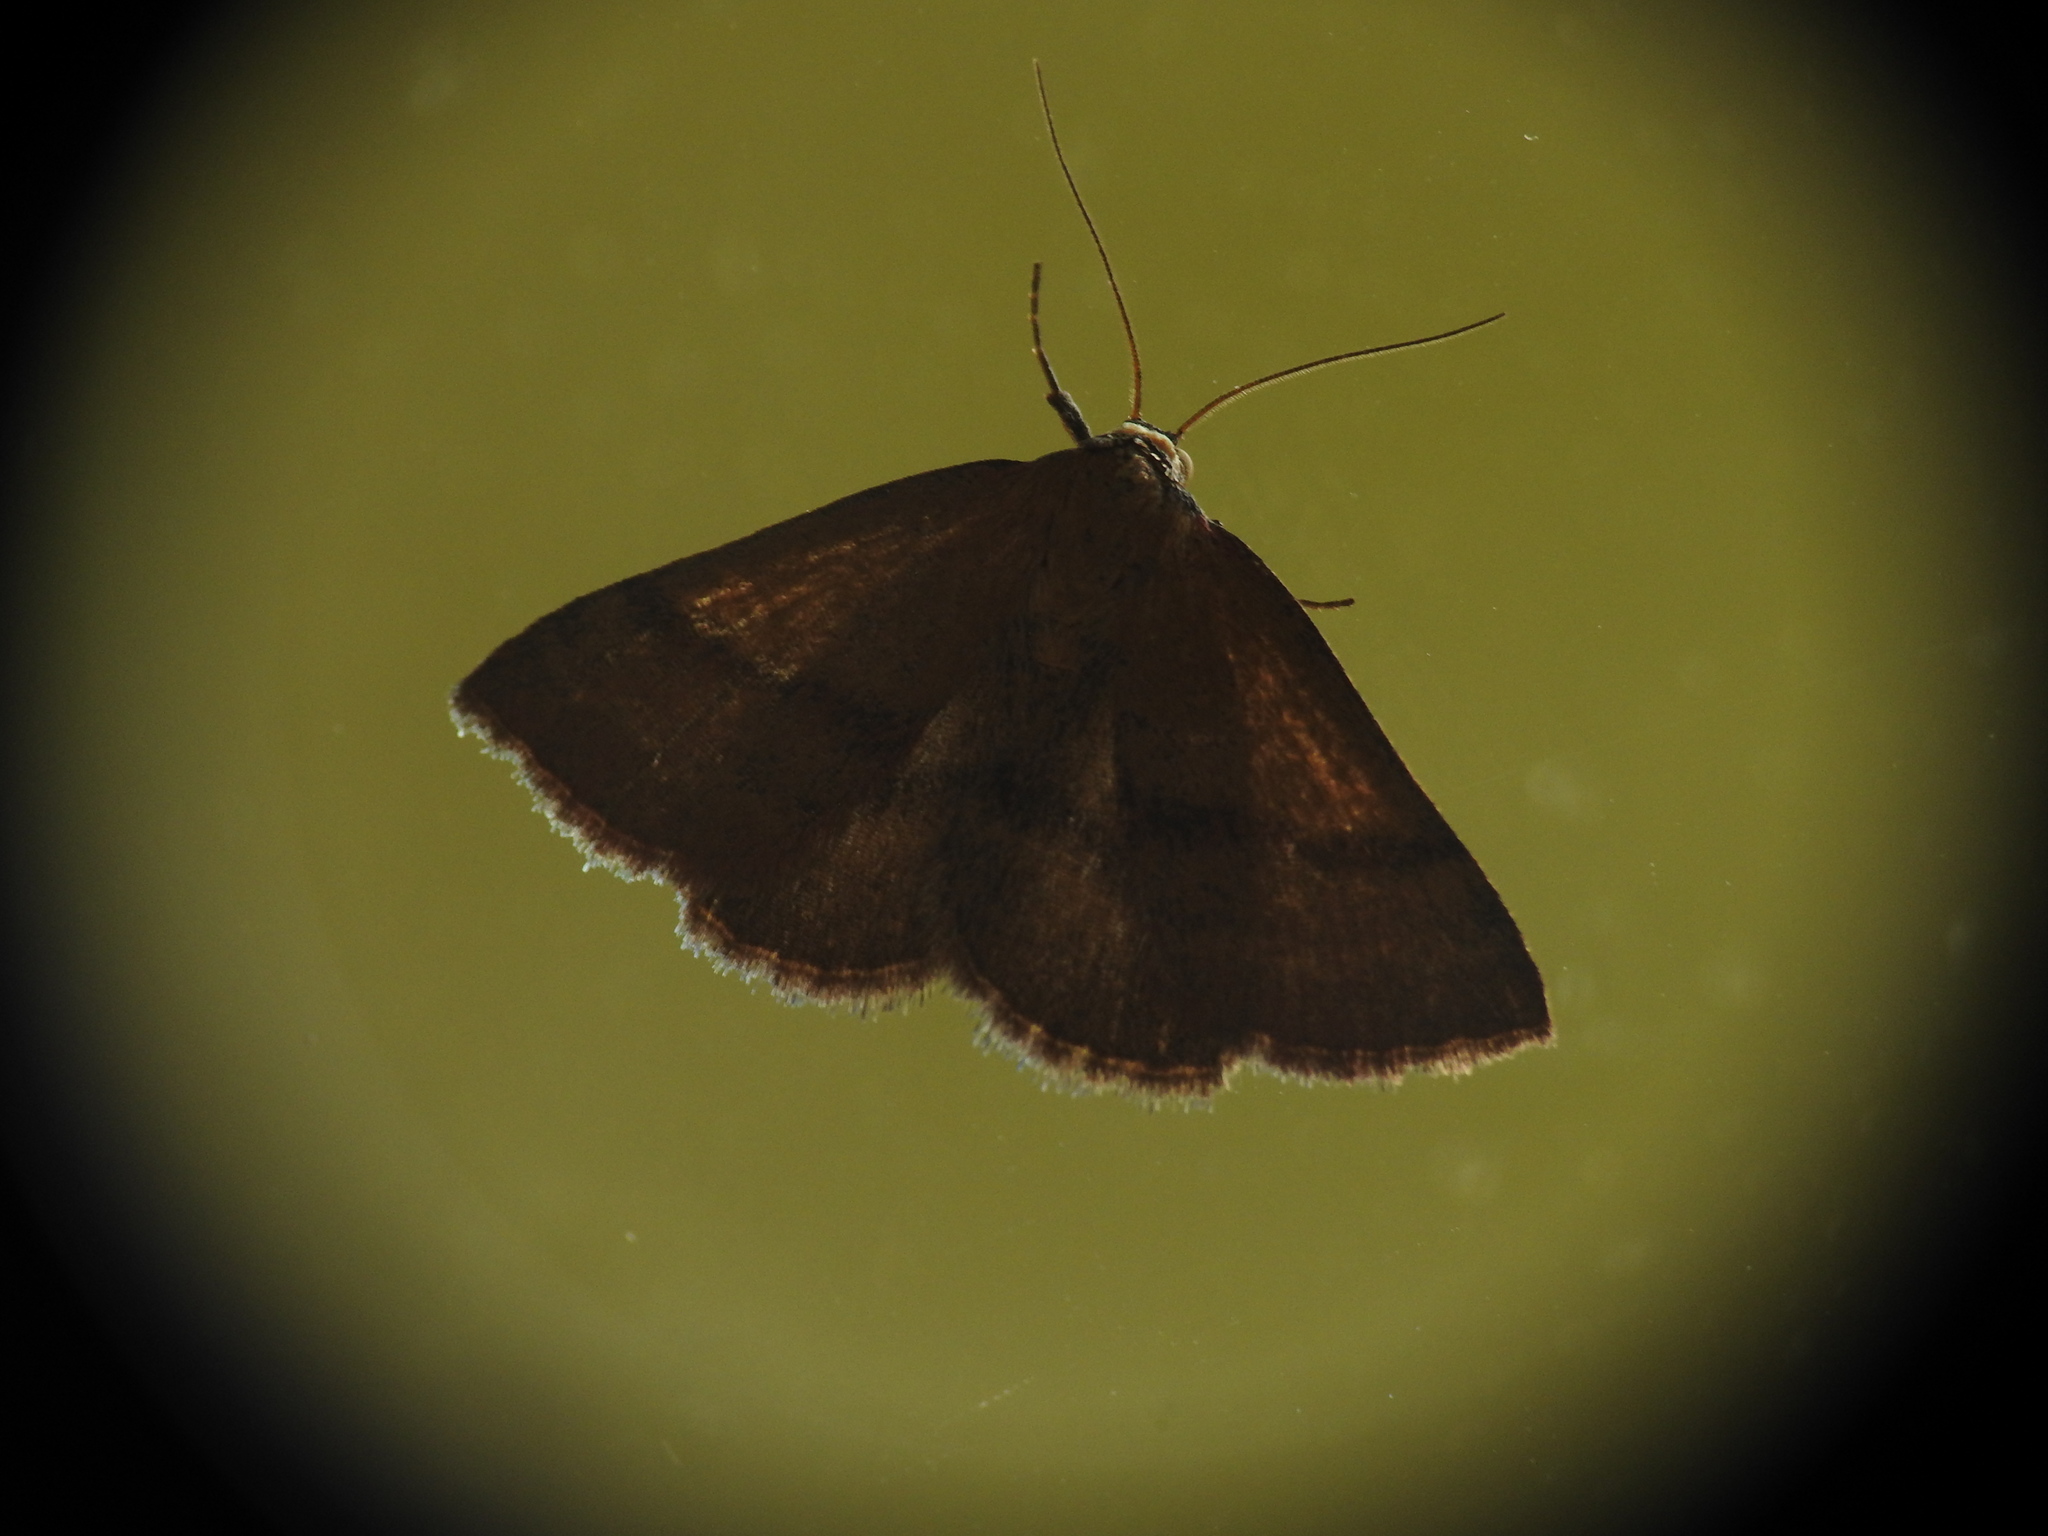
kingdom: Animalia
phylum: Arthropoda
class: Insecta
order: Lepidoptera
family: Erebidae
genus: Phytometra
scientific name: Phytometra viridaria
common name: Small purple-barred
